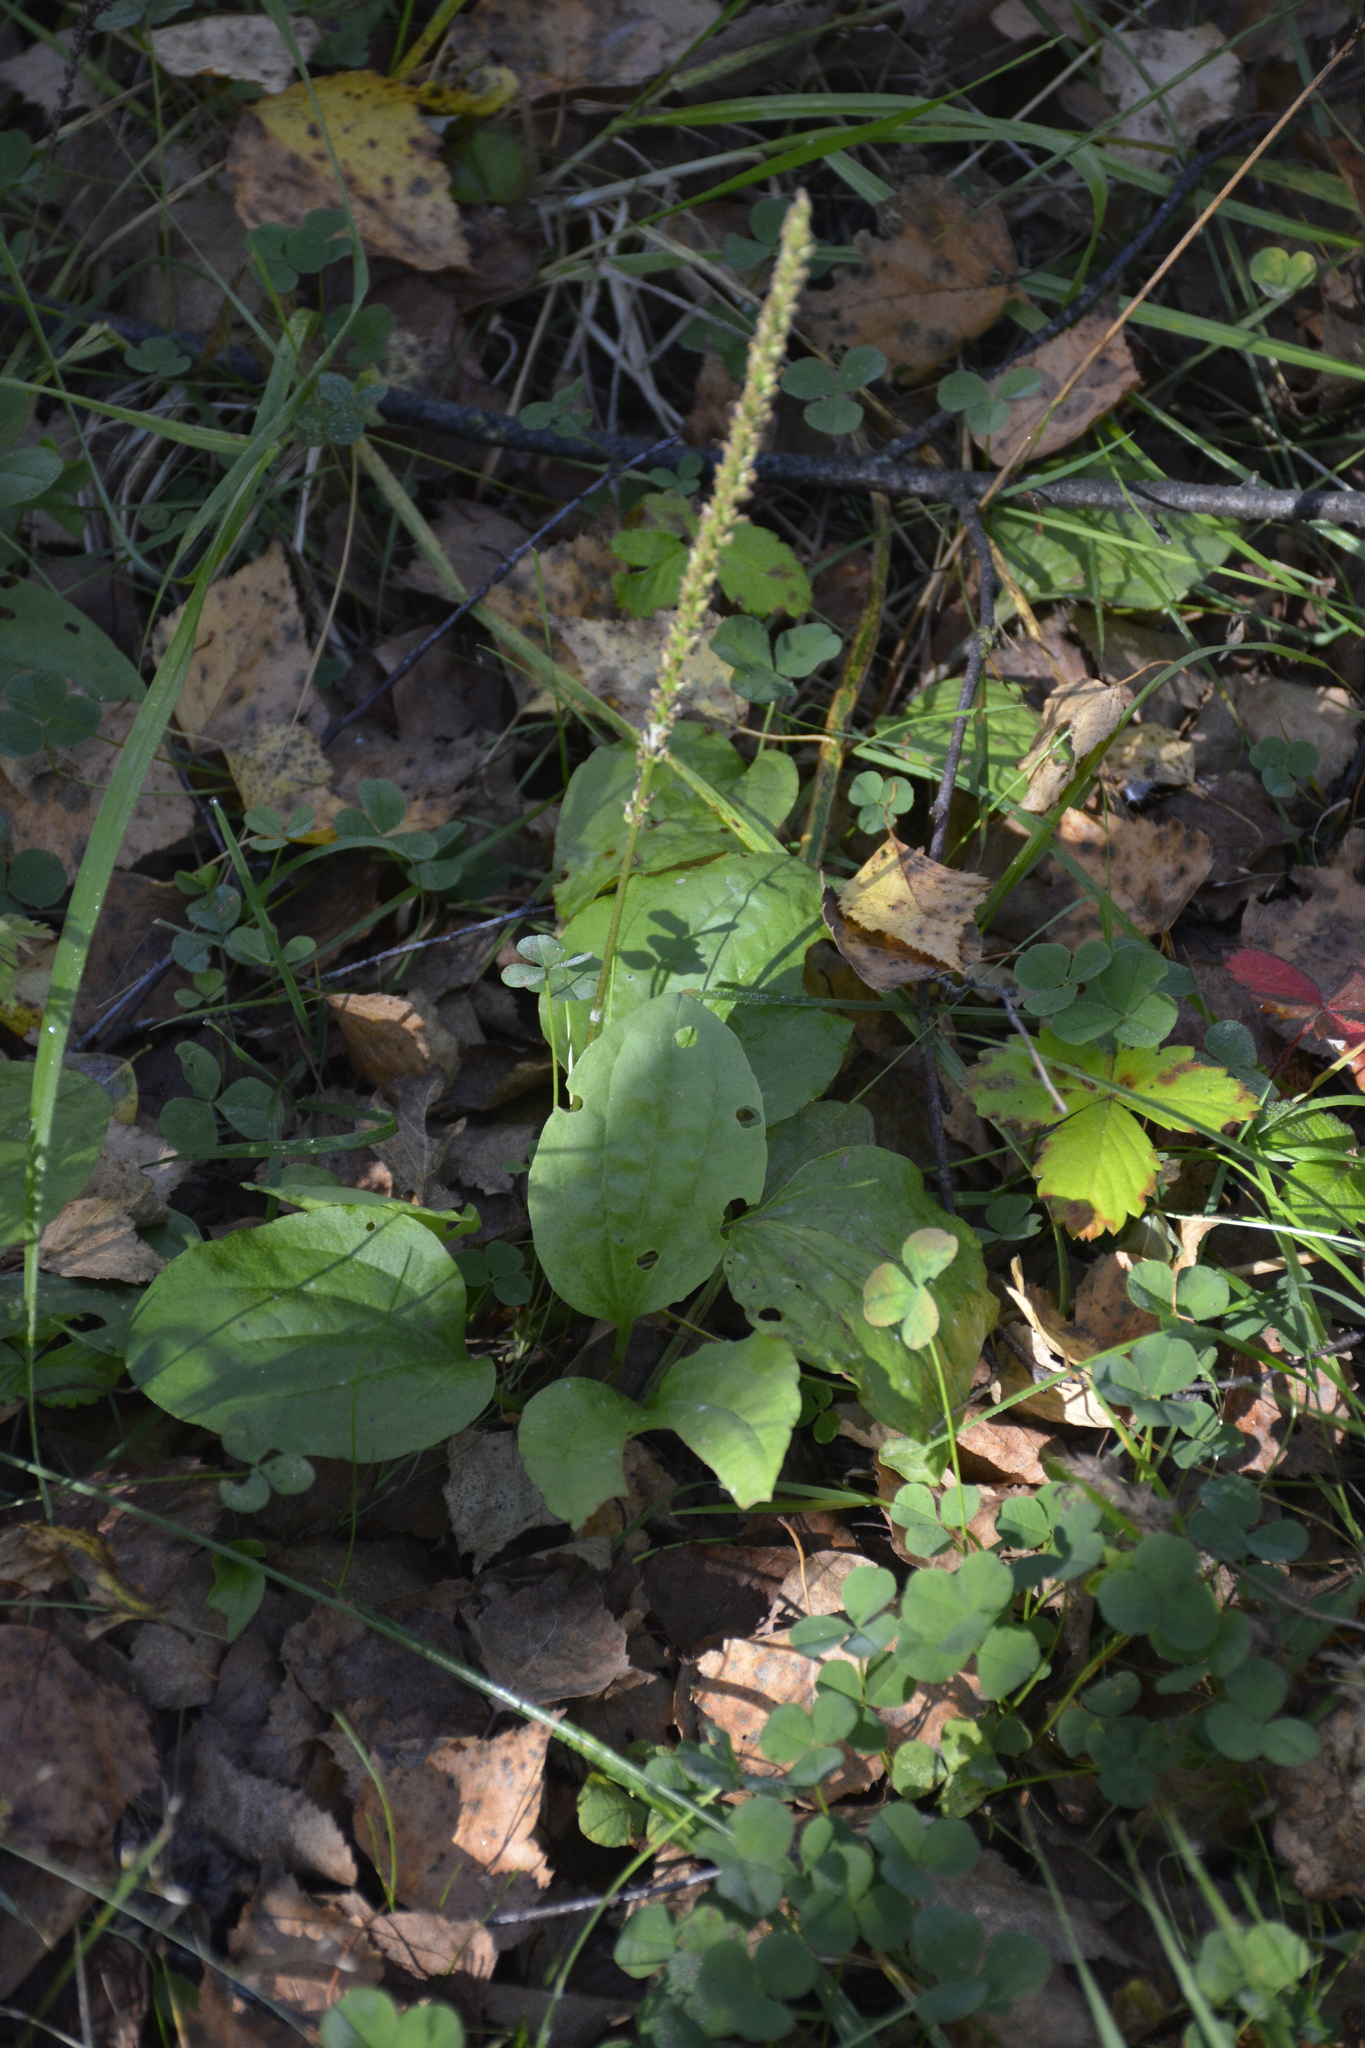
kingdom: Plantae
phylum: Tracheophyta
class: Magnoliopsida
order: Lamiales
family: Plantaginaceae
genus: Plantago
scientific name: Plantago major
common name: Common plantain
